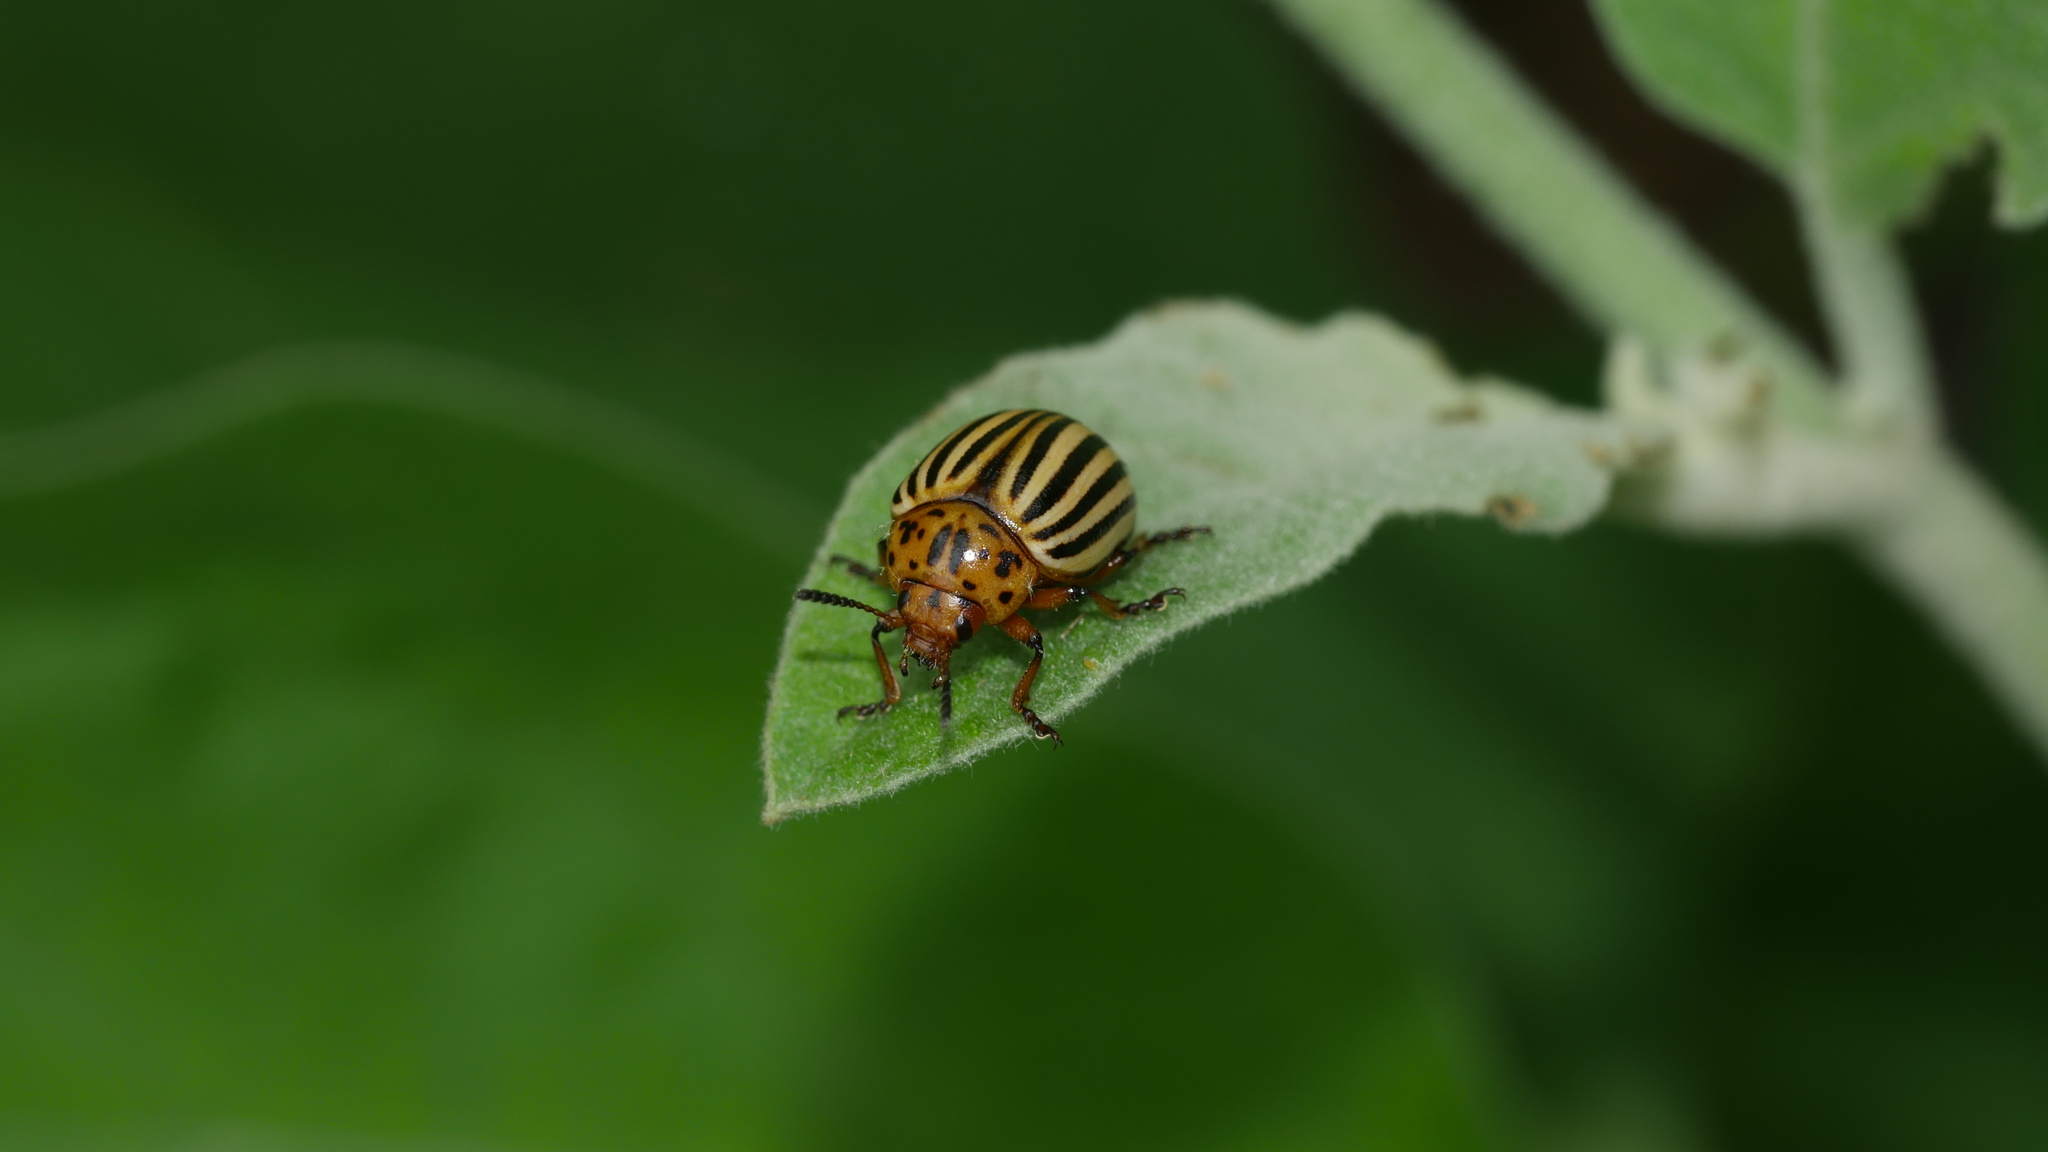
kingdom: Animalia
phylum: Arthropoda
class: Insecta
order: Coleoptera
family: Chrysomelidae
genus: Leptinotarsa
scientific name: Leptinotarsa decemlineata
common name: Colorado potato beetle
